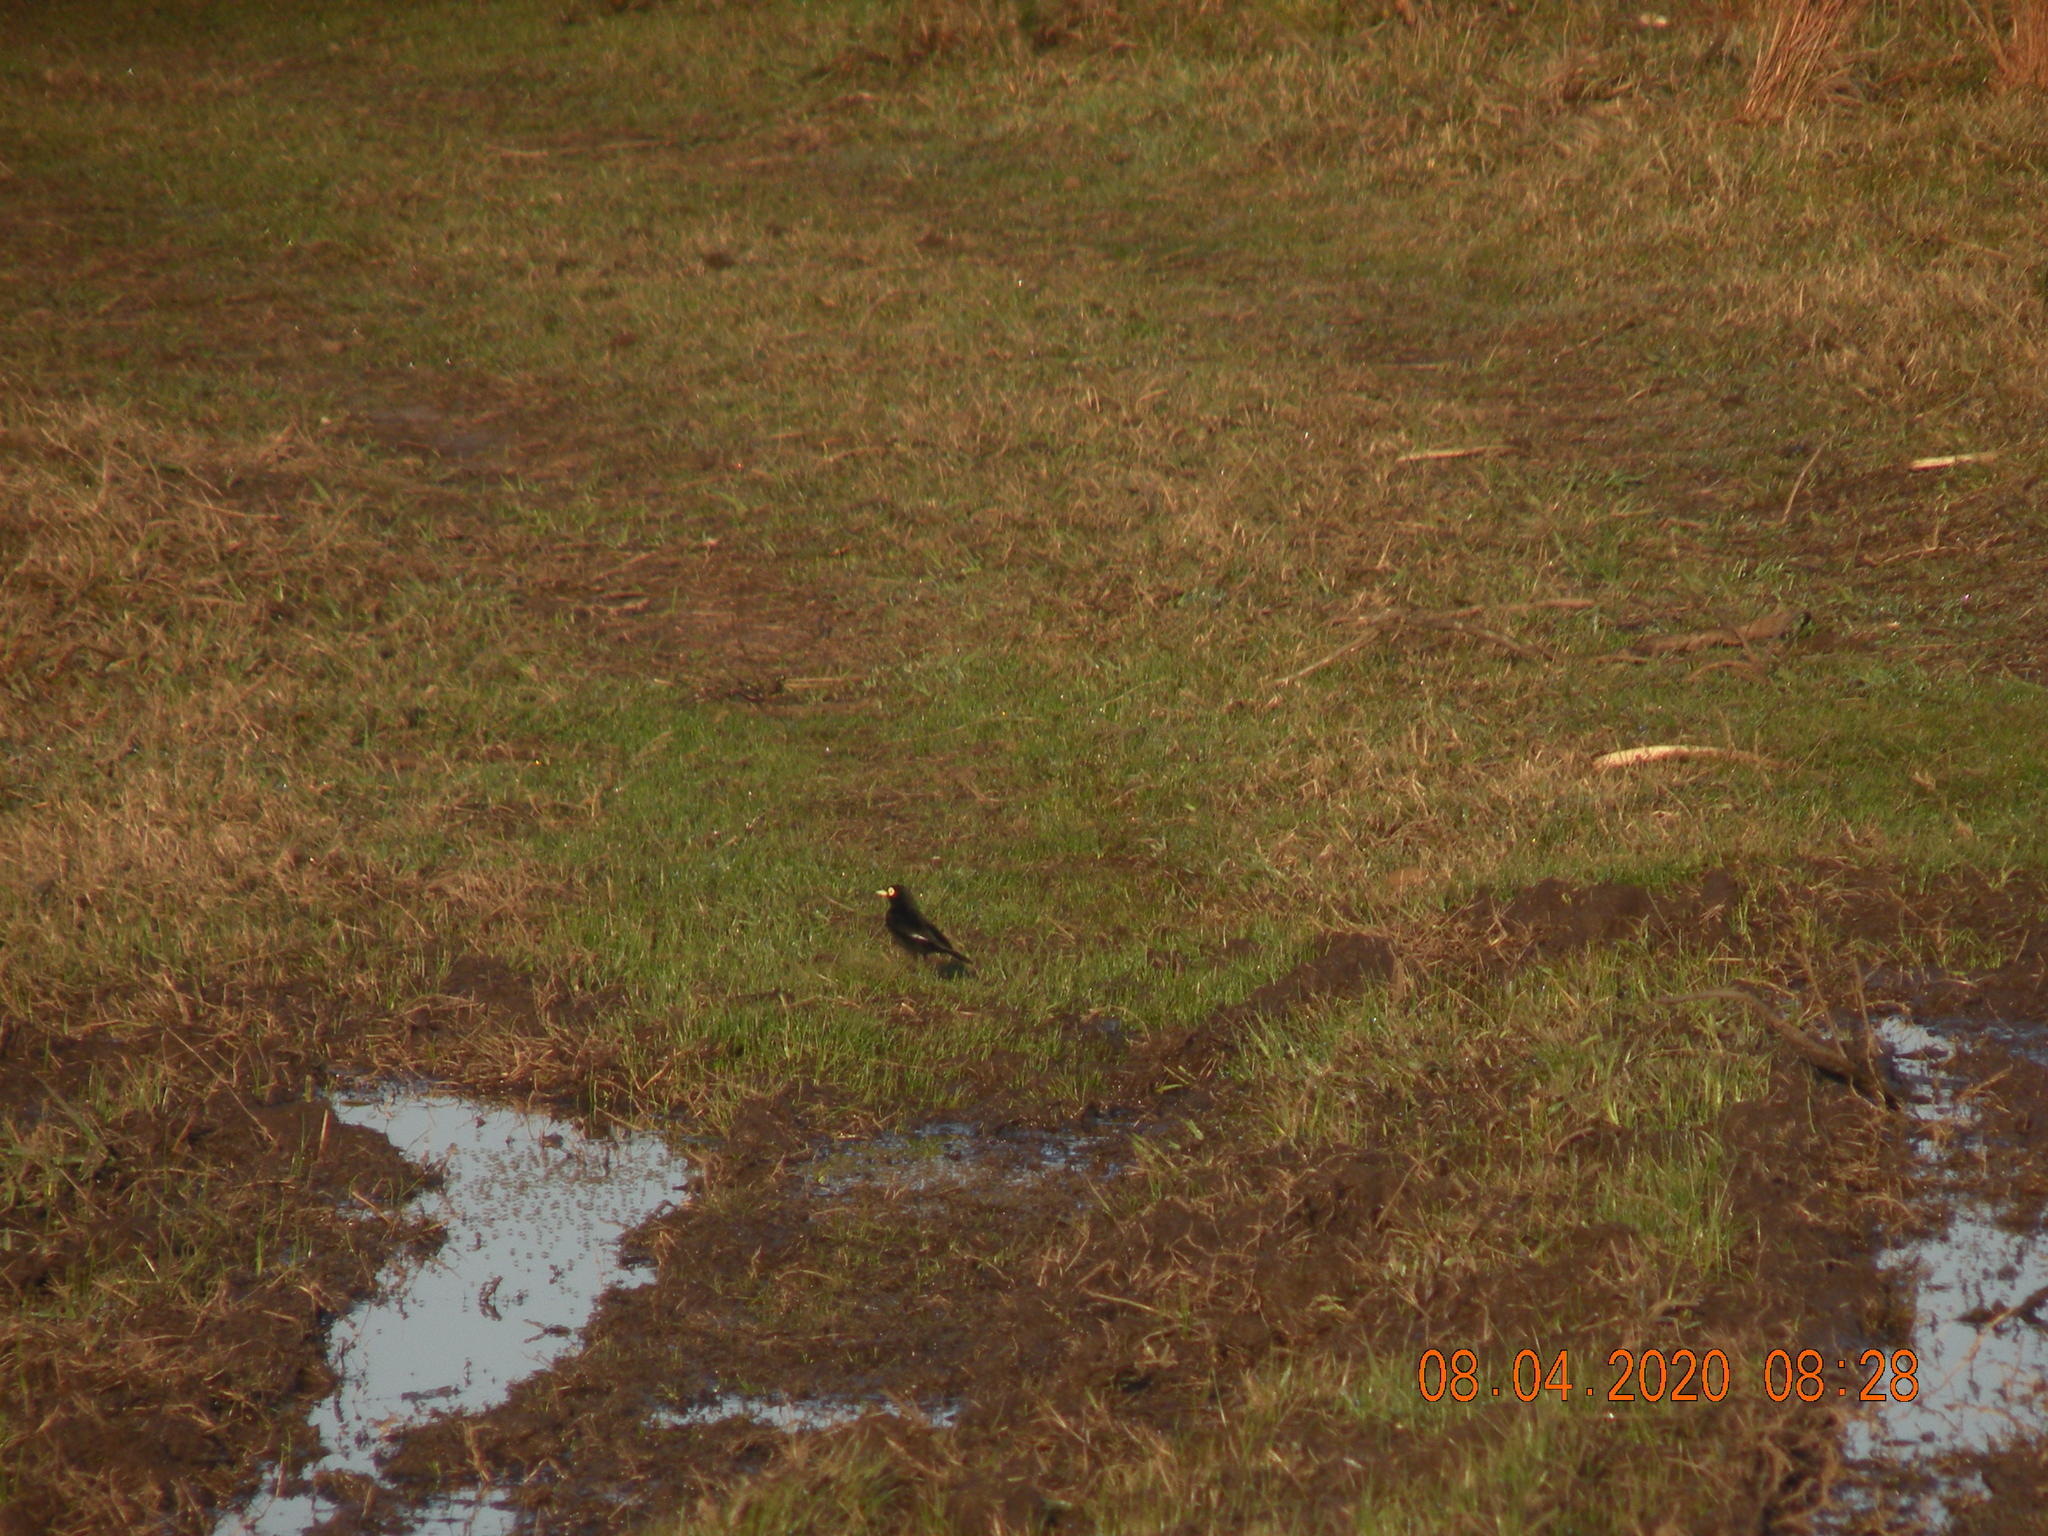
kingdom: Animalia
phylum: Chordata
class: Aves
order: Passeriformes
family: Tyrannidae
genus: Hymenops
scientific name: Hymenops perspicillatus
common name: Spectacled tyrant
